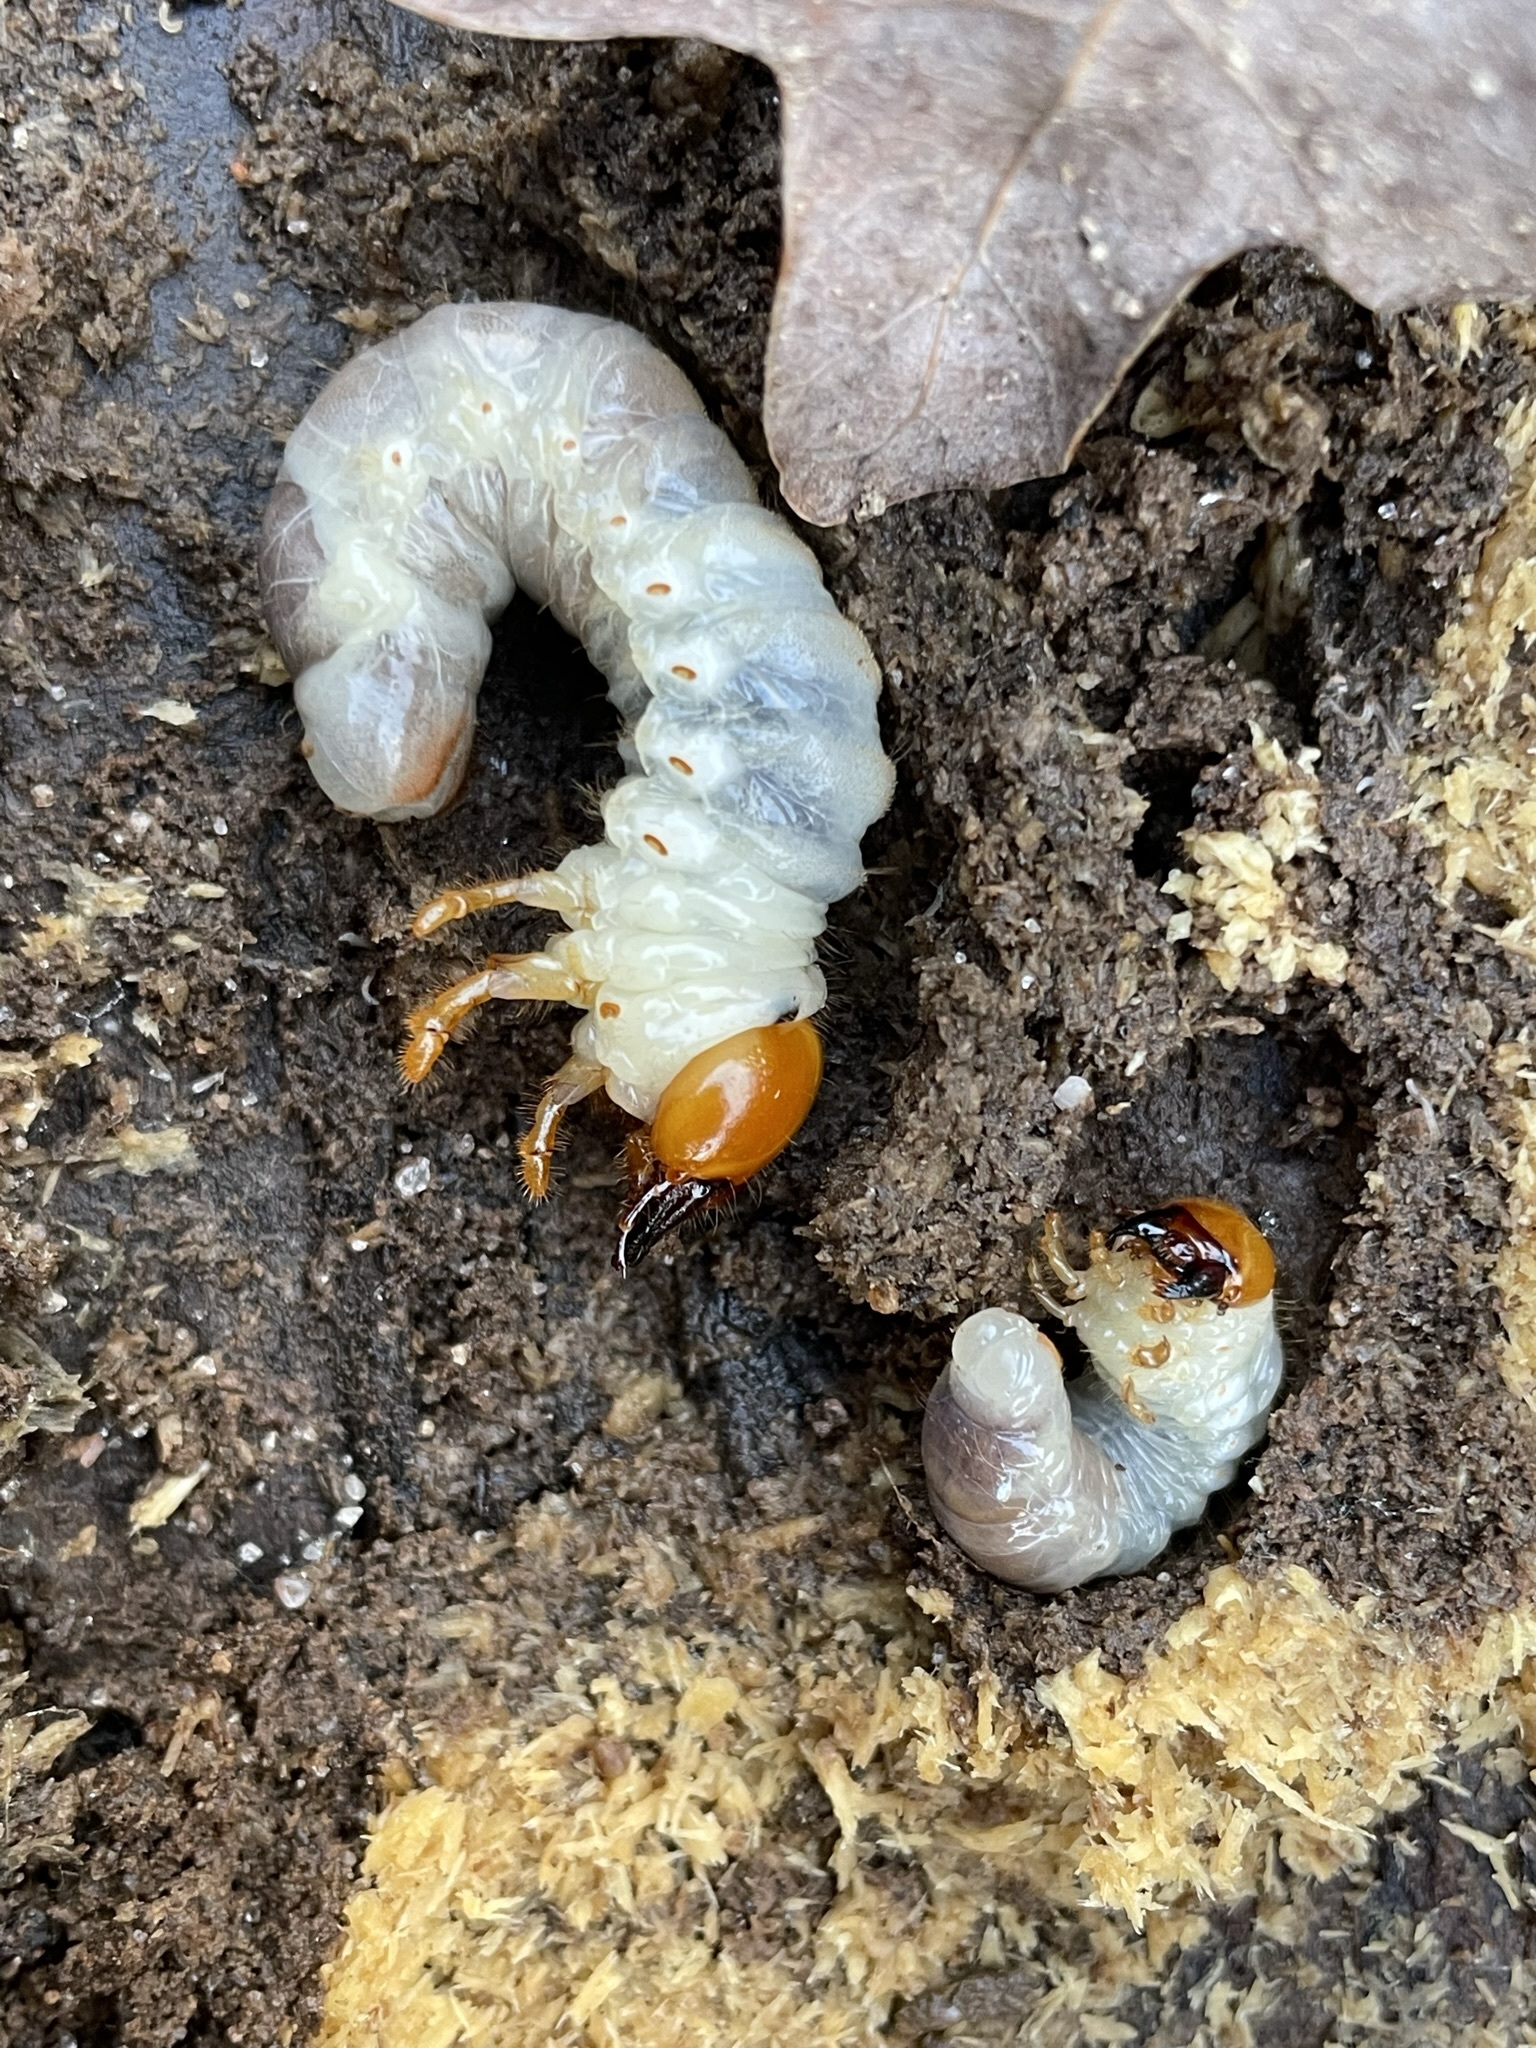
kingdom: Animalia
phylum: Arthropoda
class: Insecta
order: Coleoptera
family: Passalidae
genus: Odontotaenius
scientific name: Odontotaenius disjunctus
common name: Patent leather beetle
